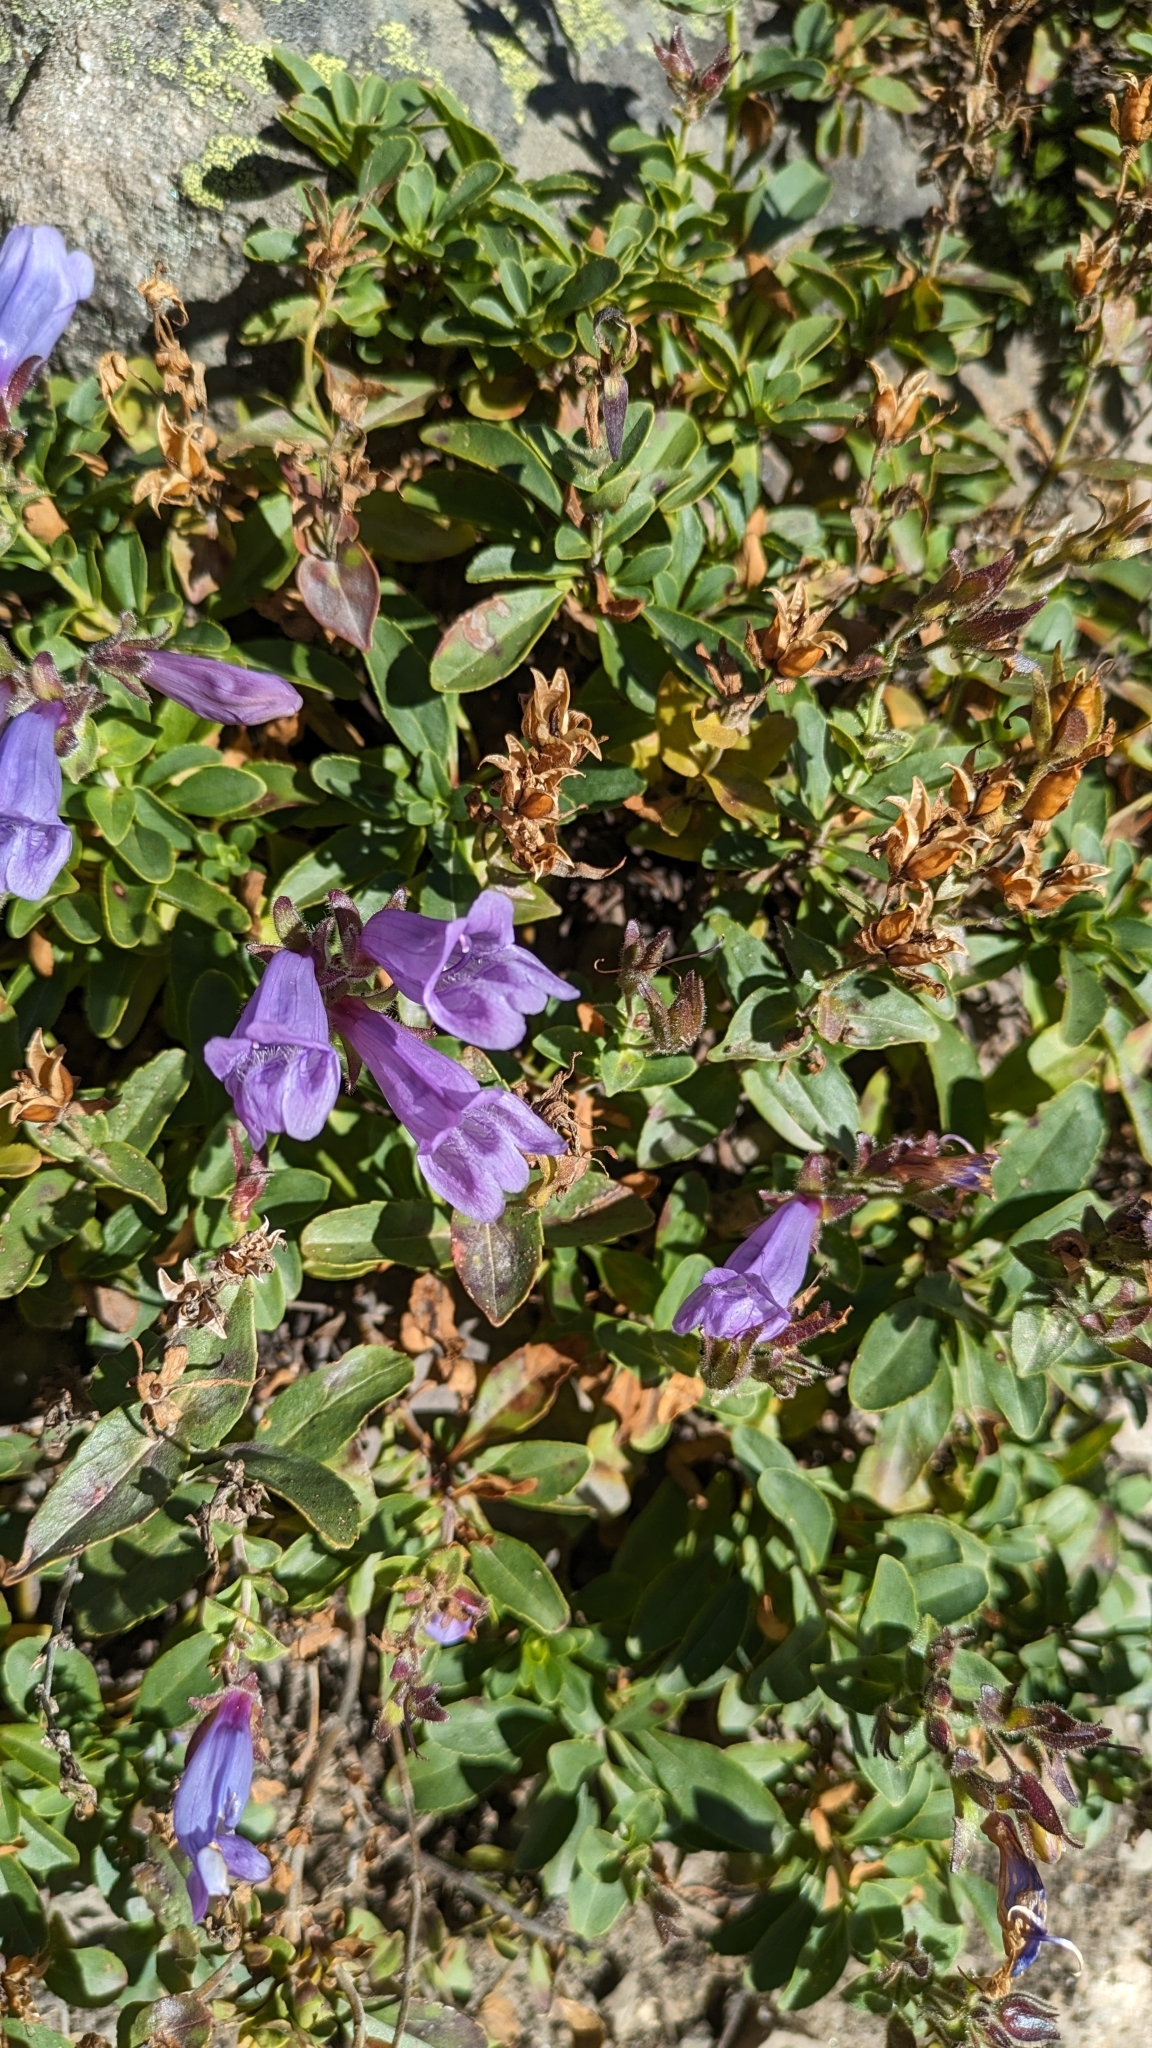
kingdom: Plantae
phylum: Tracheophyta
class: Magnoliopsida
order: Lamiales
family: Plantaginaceae
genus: Penstemon
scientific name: Penstemon ellipticus
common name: Alpine beardtongue
